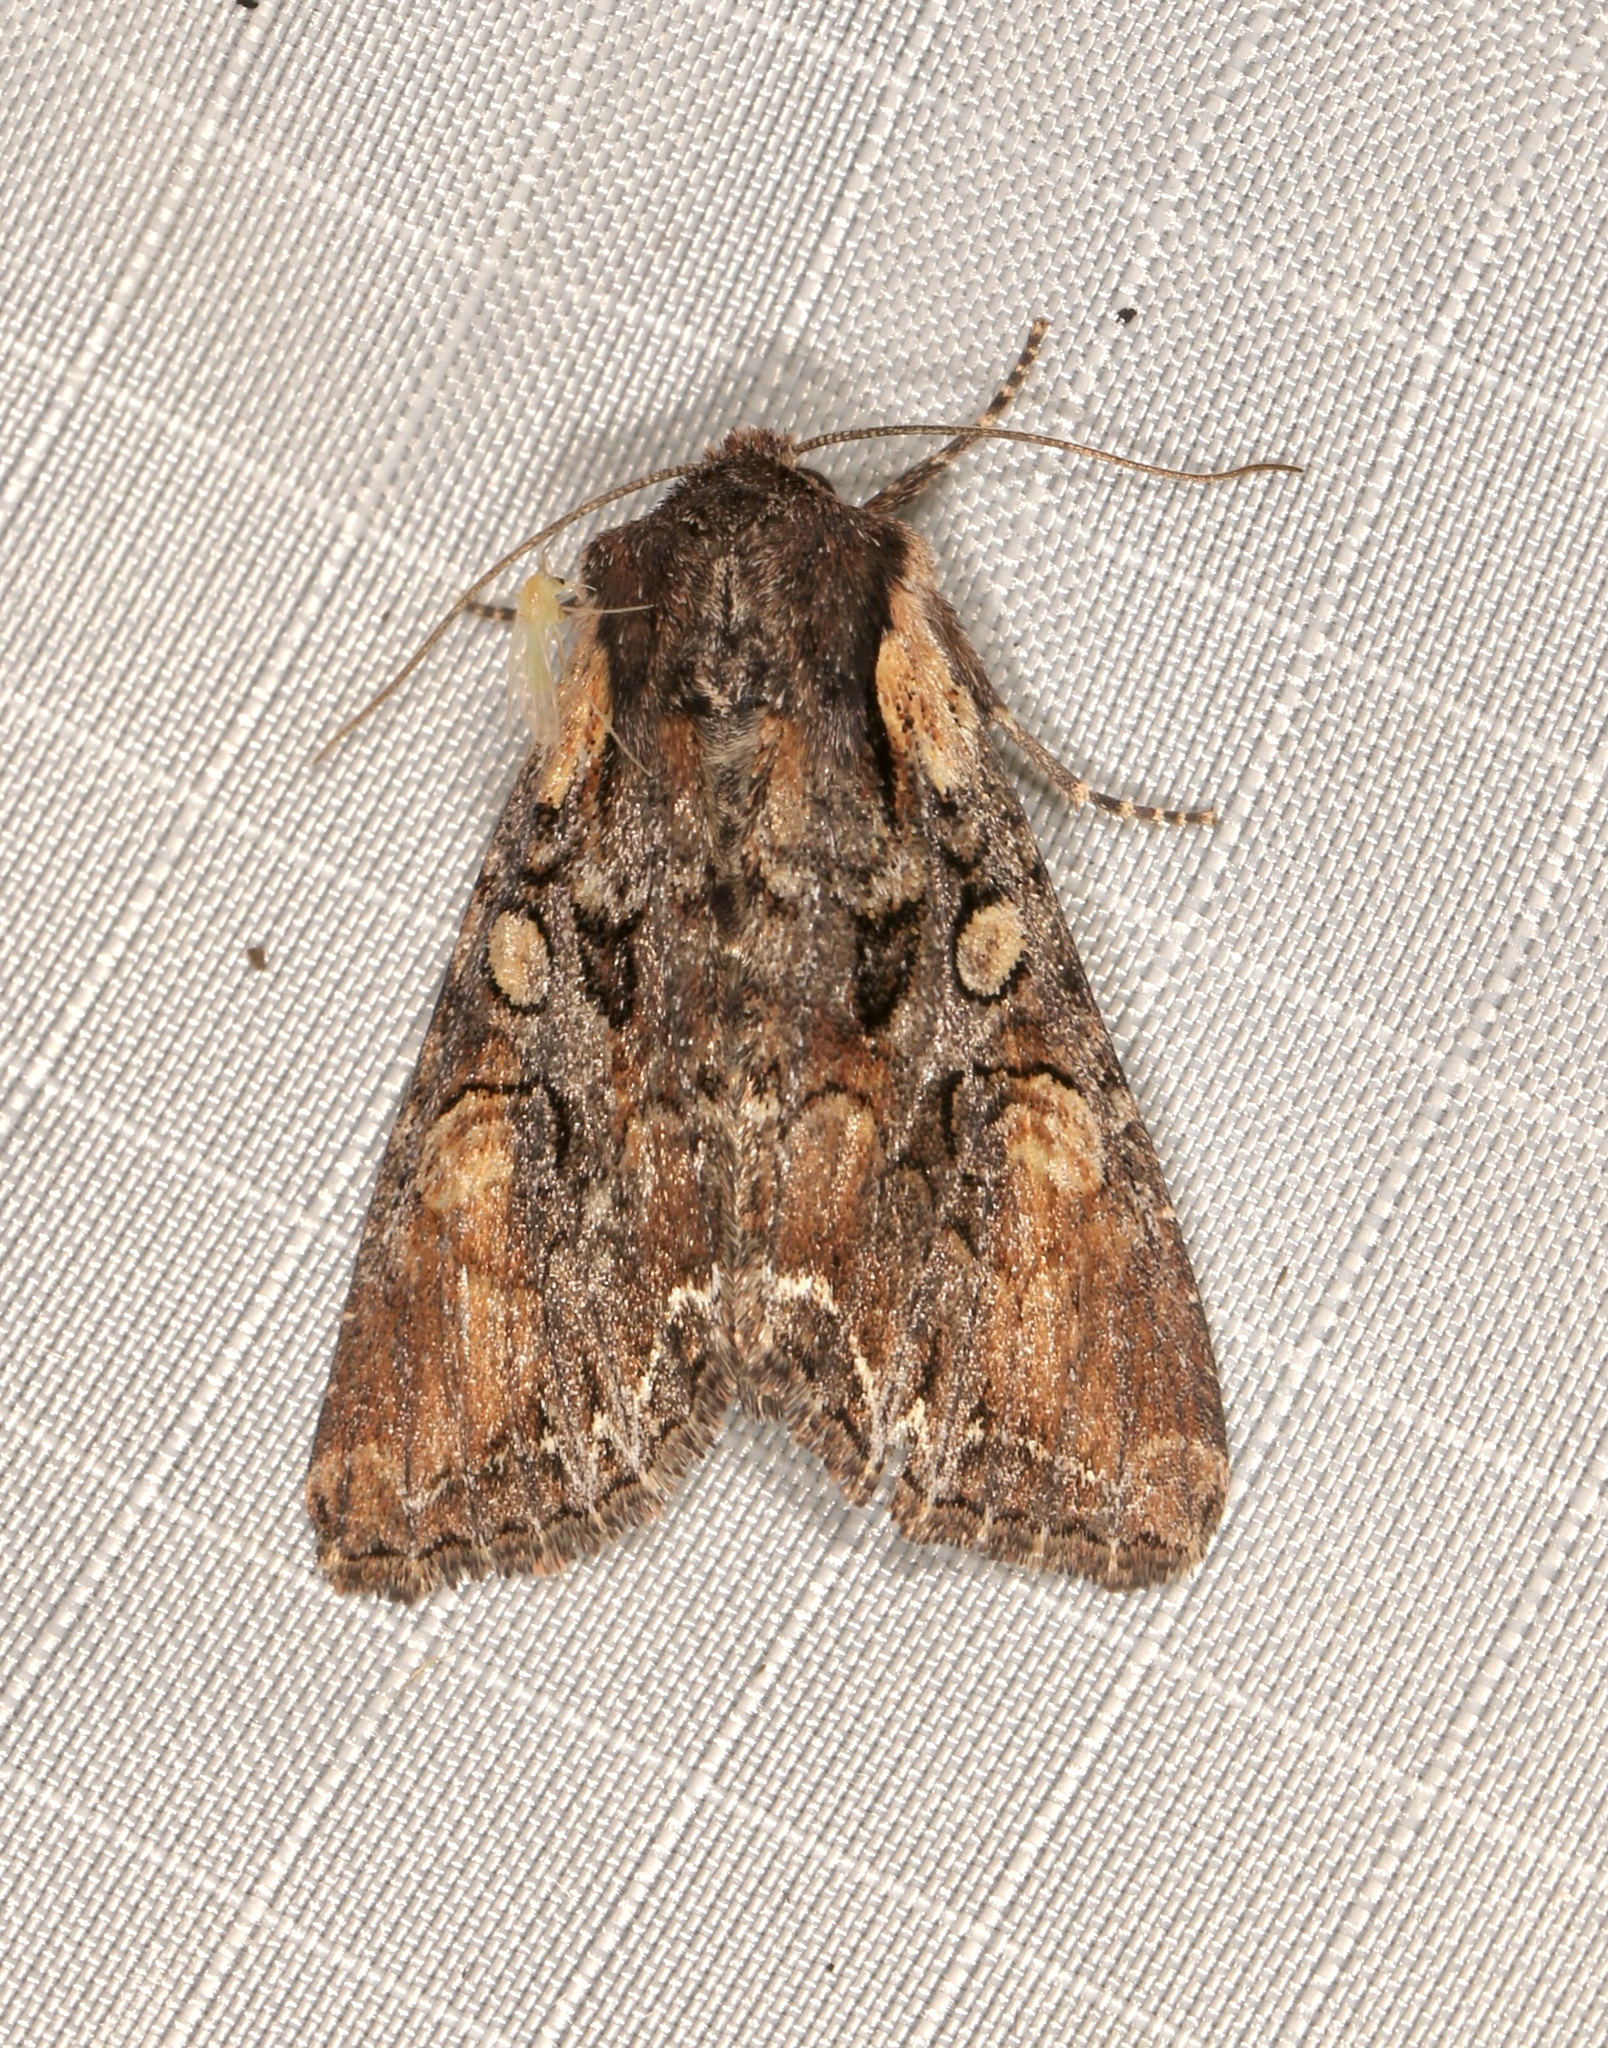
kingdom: Animalia
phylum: Arthropoda
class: Insecta
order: Lepidoptera
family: Noctuidae
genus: Lacanobia
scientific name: Lacanobia nevadae
